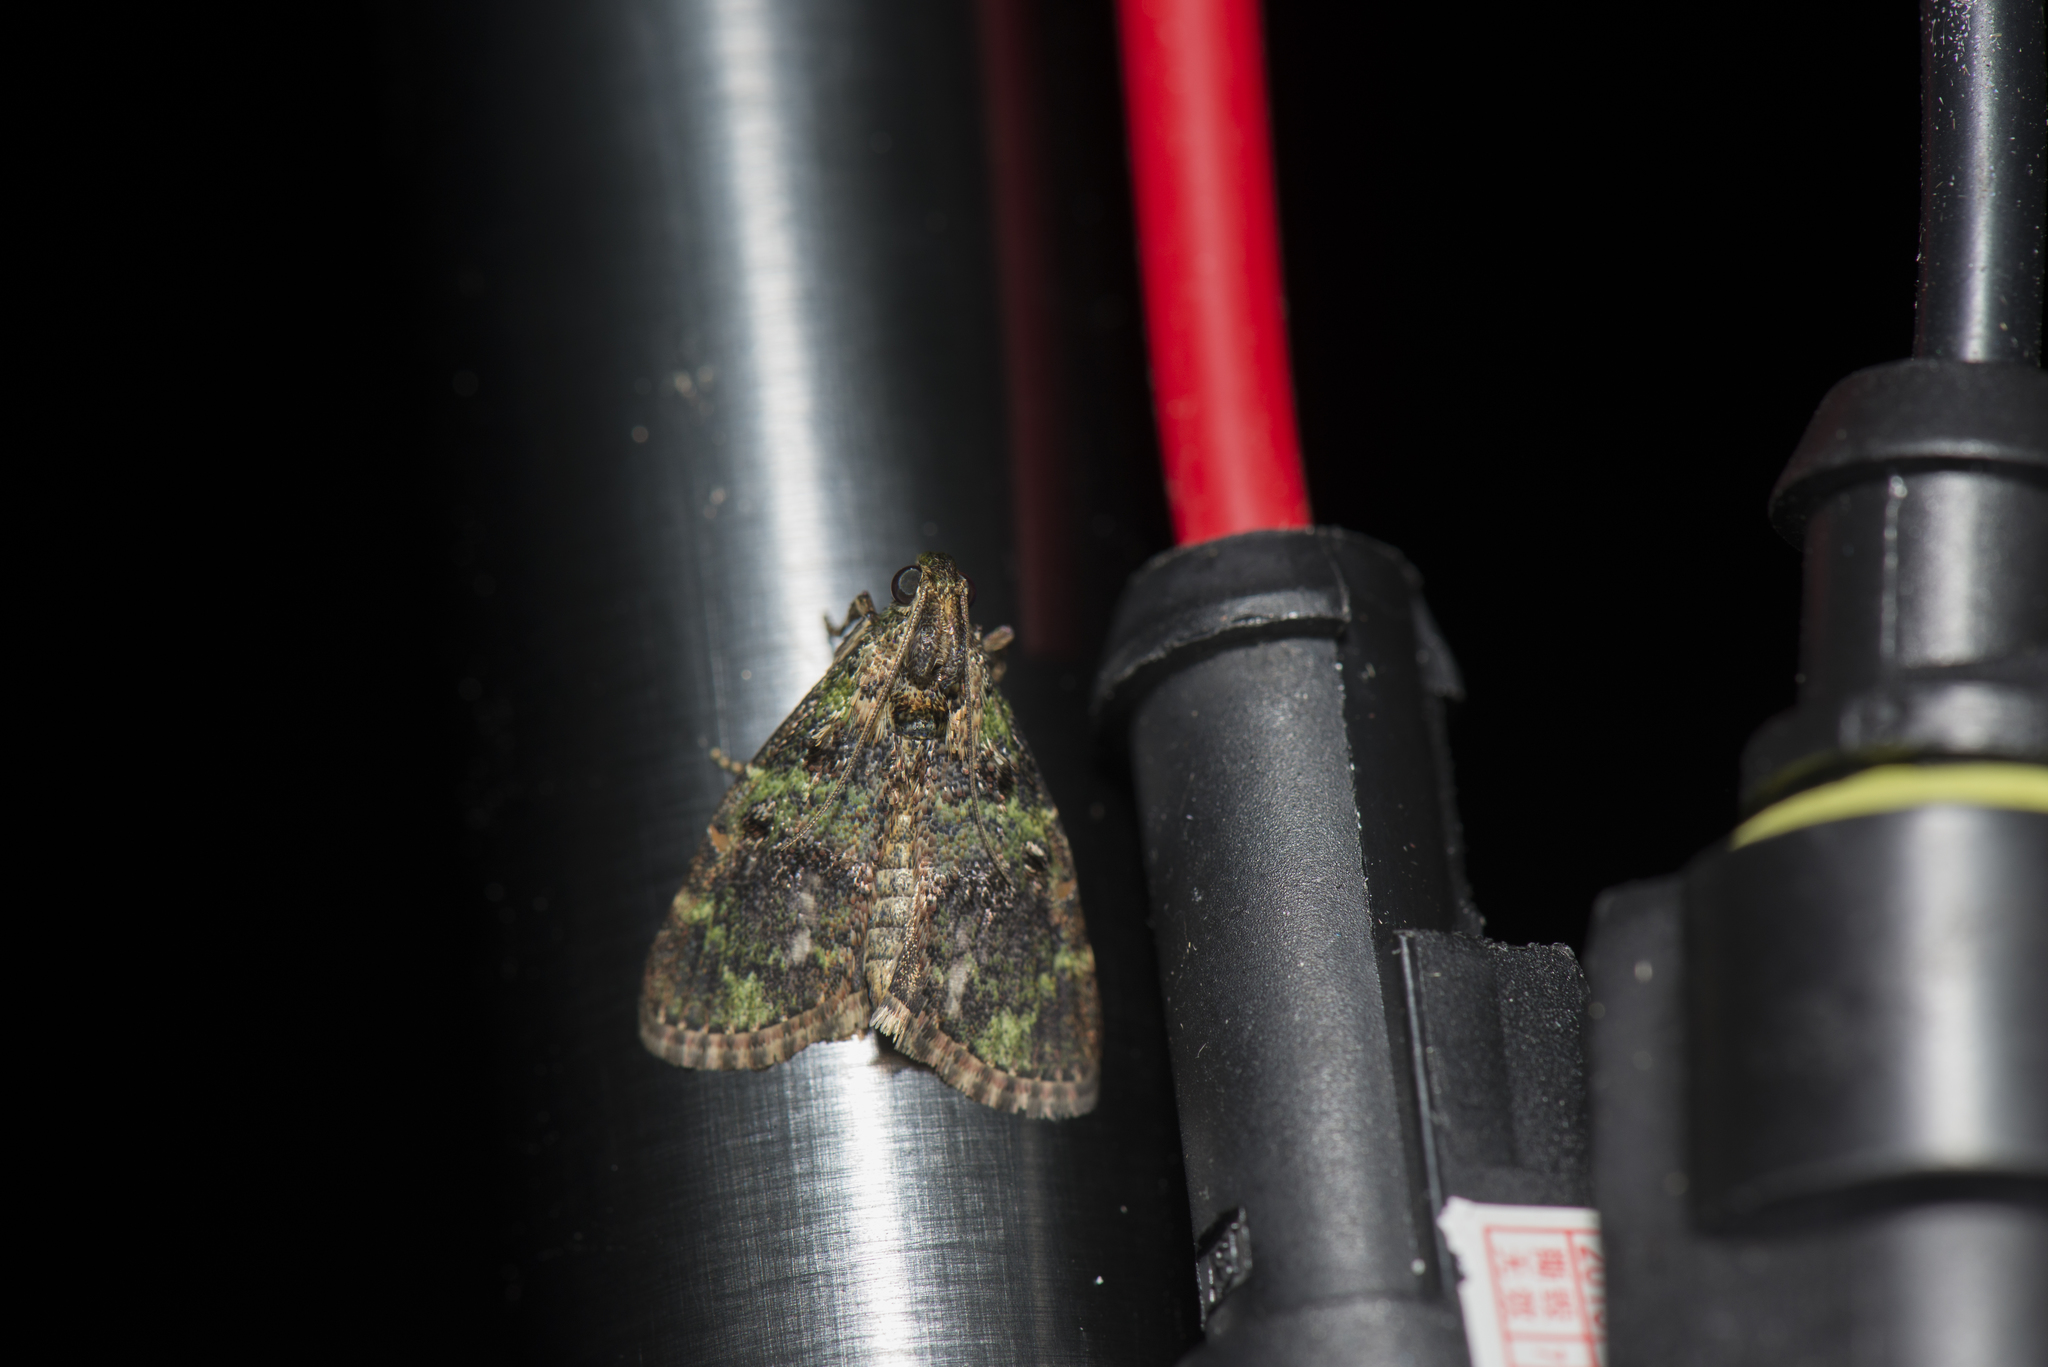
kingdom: Animalia
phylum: Arthropoda
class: Insecta
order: Lepidoptera
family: Pyralidae
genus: Orthaga
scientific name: Orthaga olivacea
